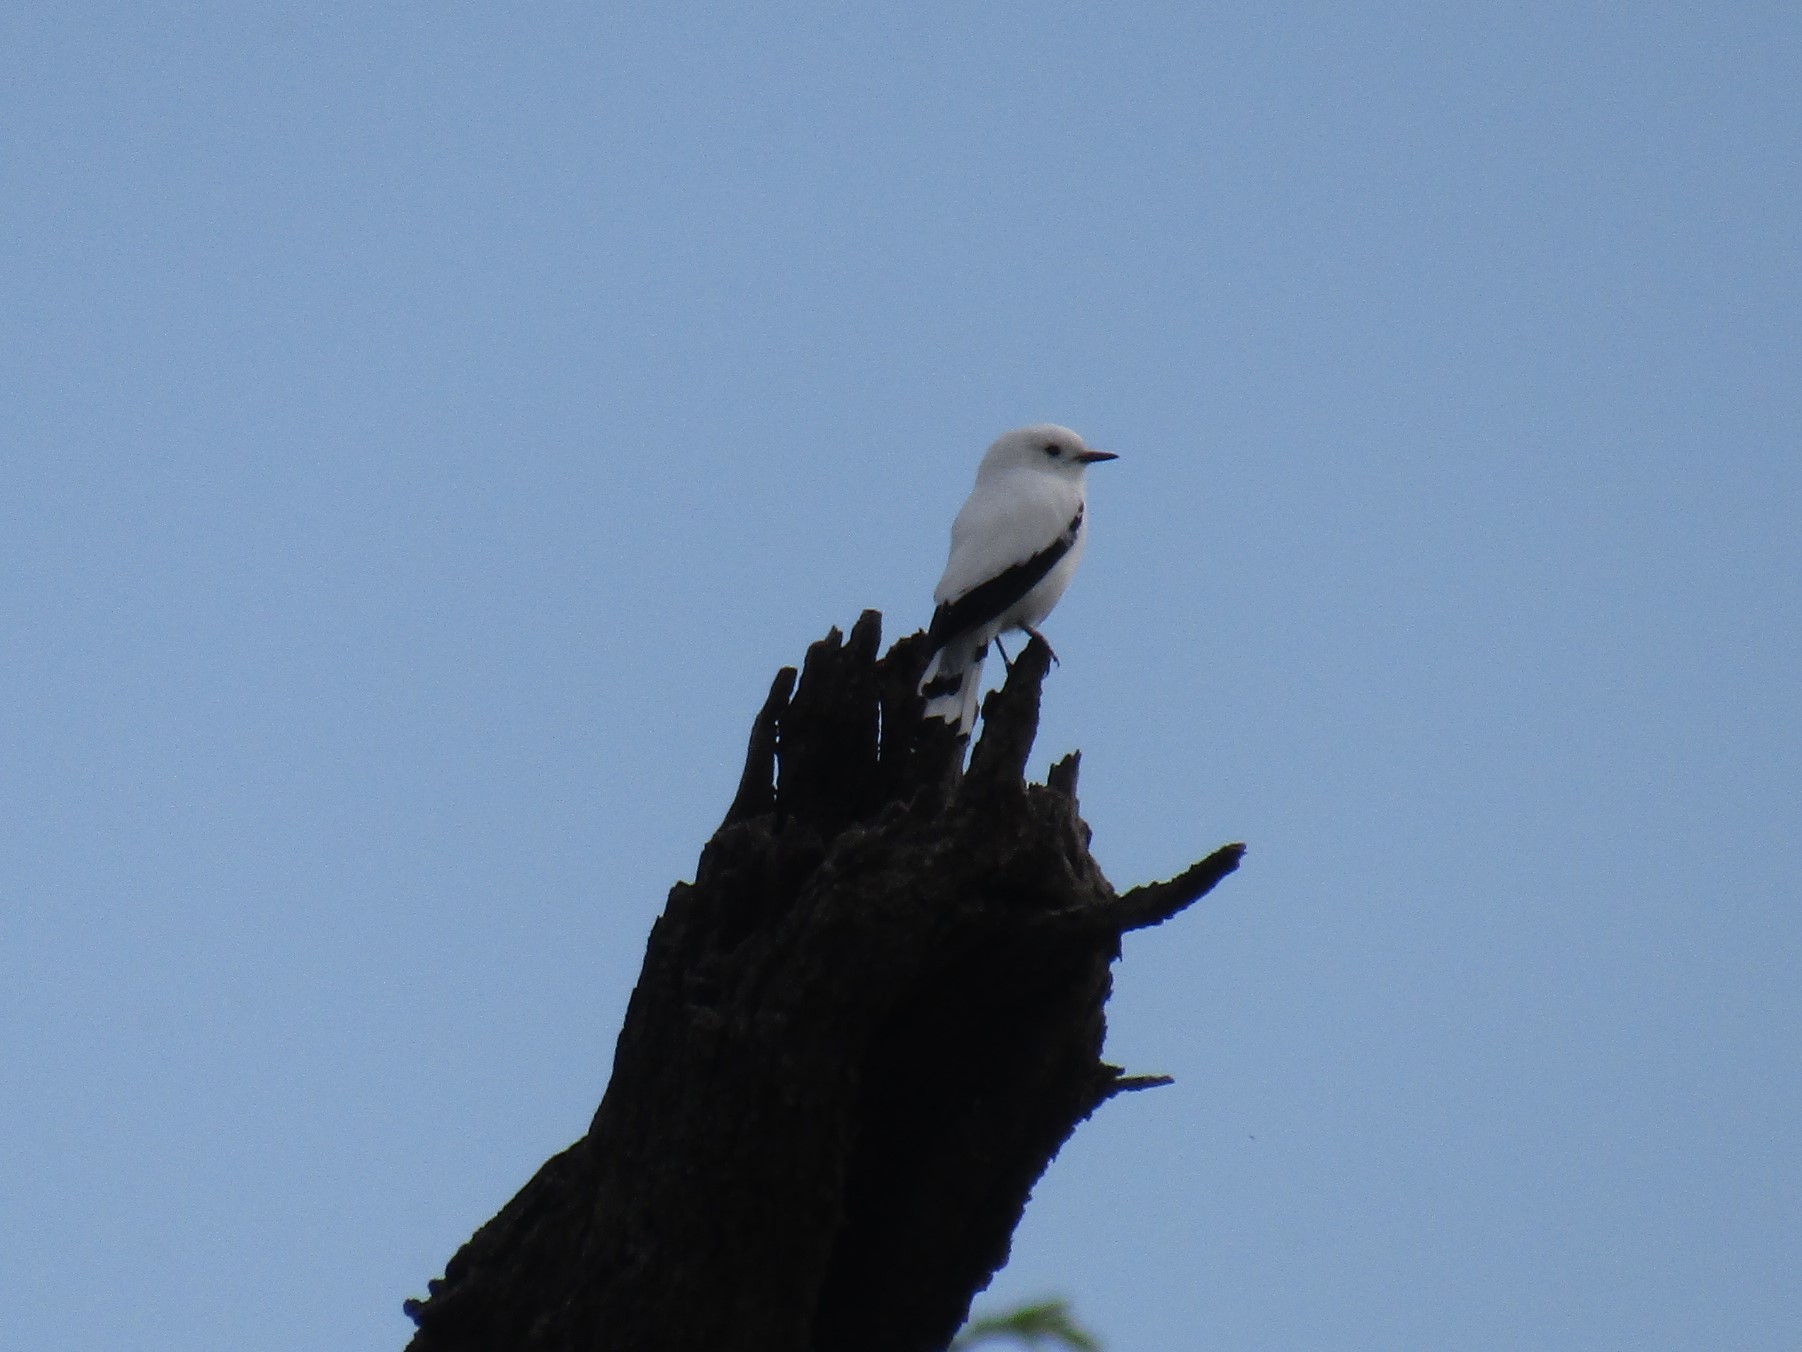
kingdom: Animalia
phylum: Chordata
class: Aves
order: Passeriformes
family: Tyrannidae
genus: Xolmis
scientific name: Xolmis irupero
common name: White monjita
